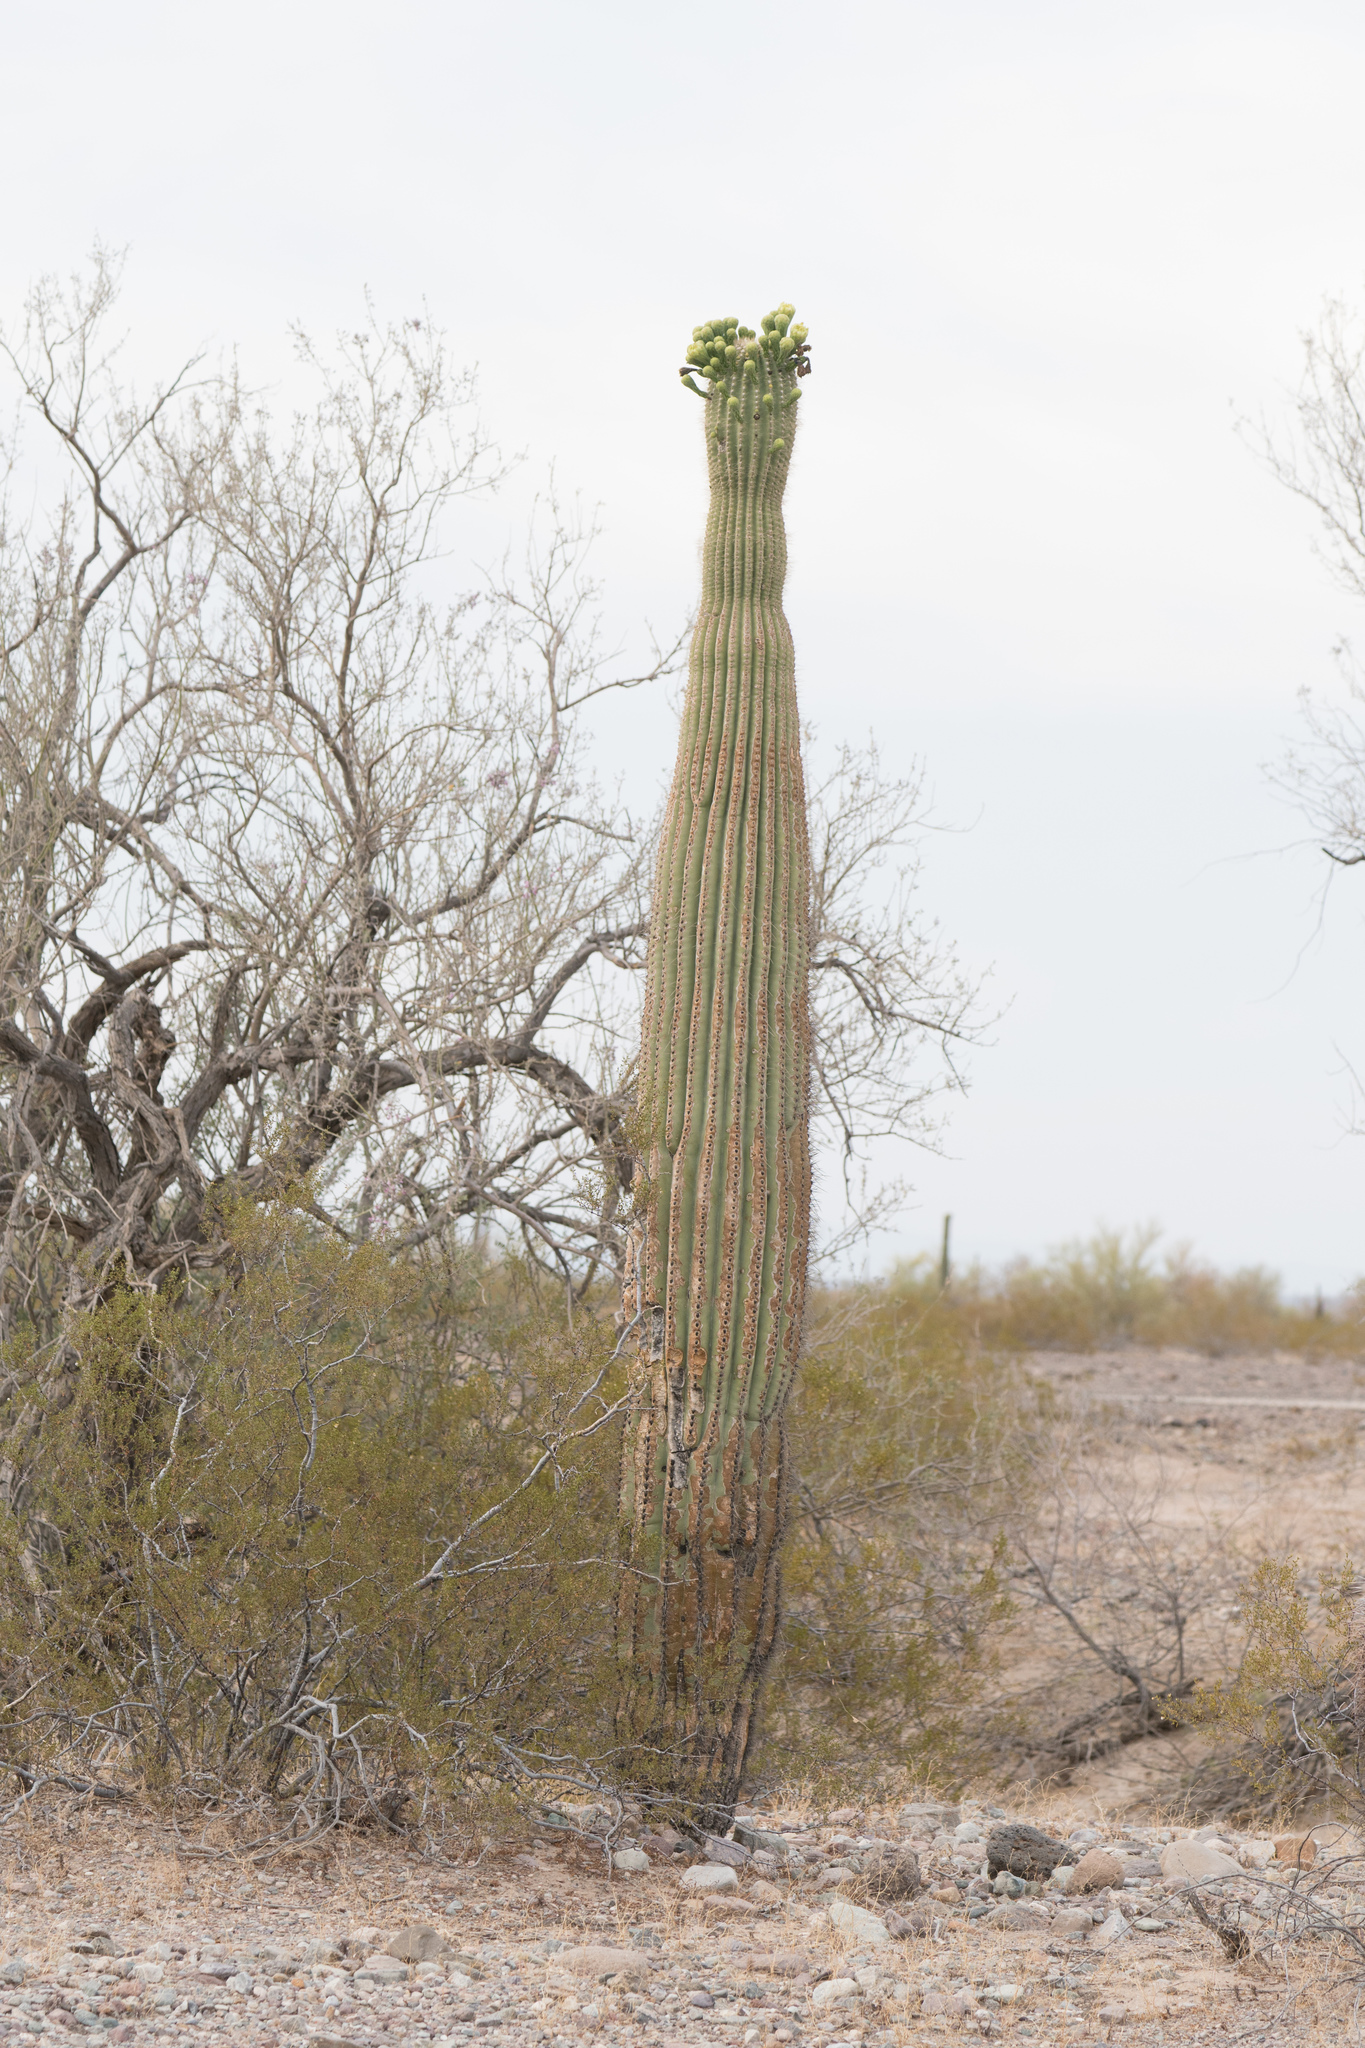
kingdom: Plantae
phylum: Tracheophyta
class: Magnoliopsida
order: Caryophyllales
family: Cactaceae
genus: Carnegiea
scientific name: Carnegiea gigantea
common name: Saguaro
